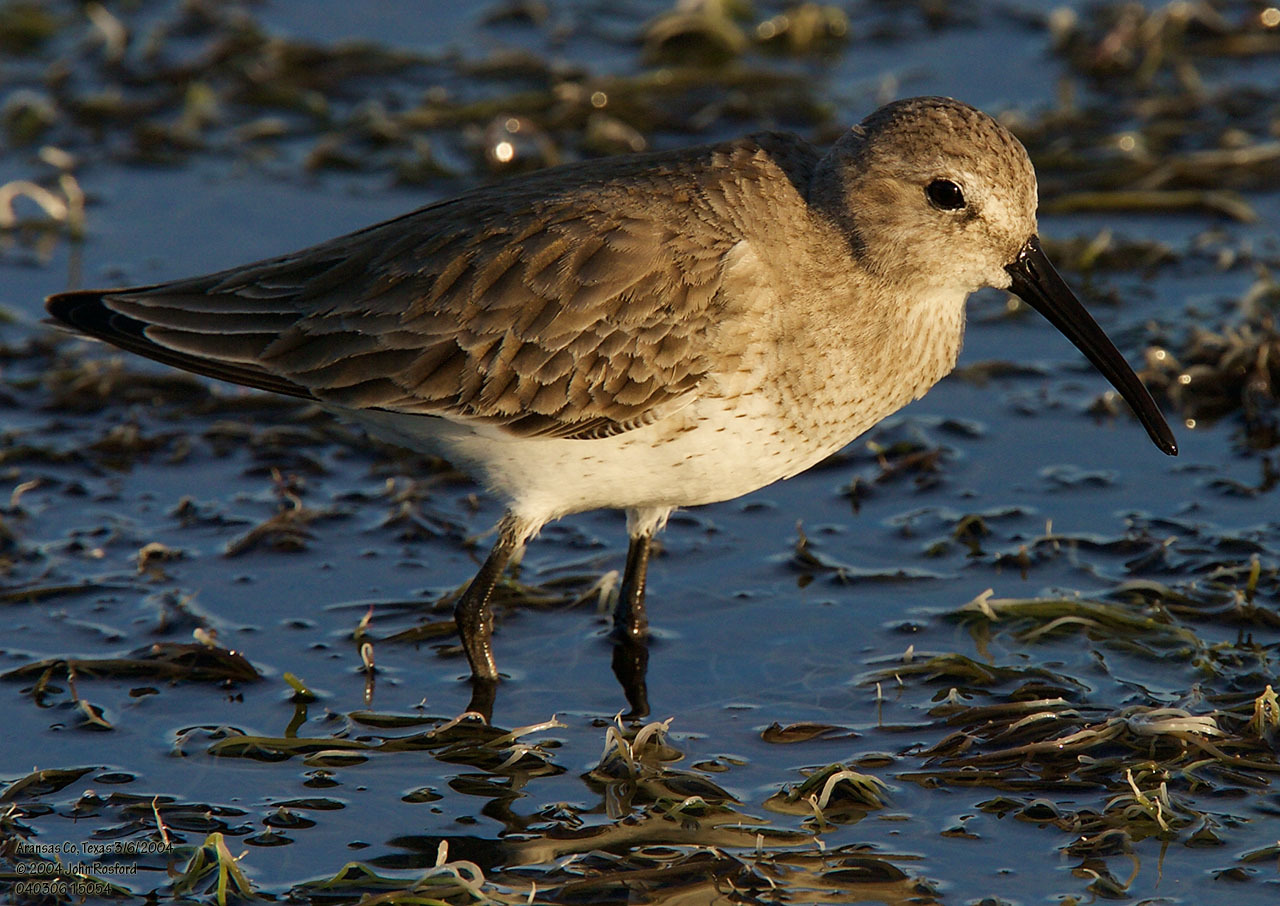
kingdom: Animalia
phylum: Chordata
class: Aves
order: Charadriiformes
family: Scolopacidae
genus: Calidris
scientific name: Calidris alpina
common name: Dunlin
